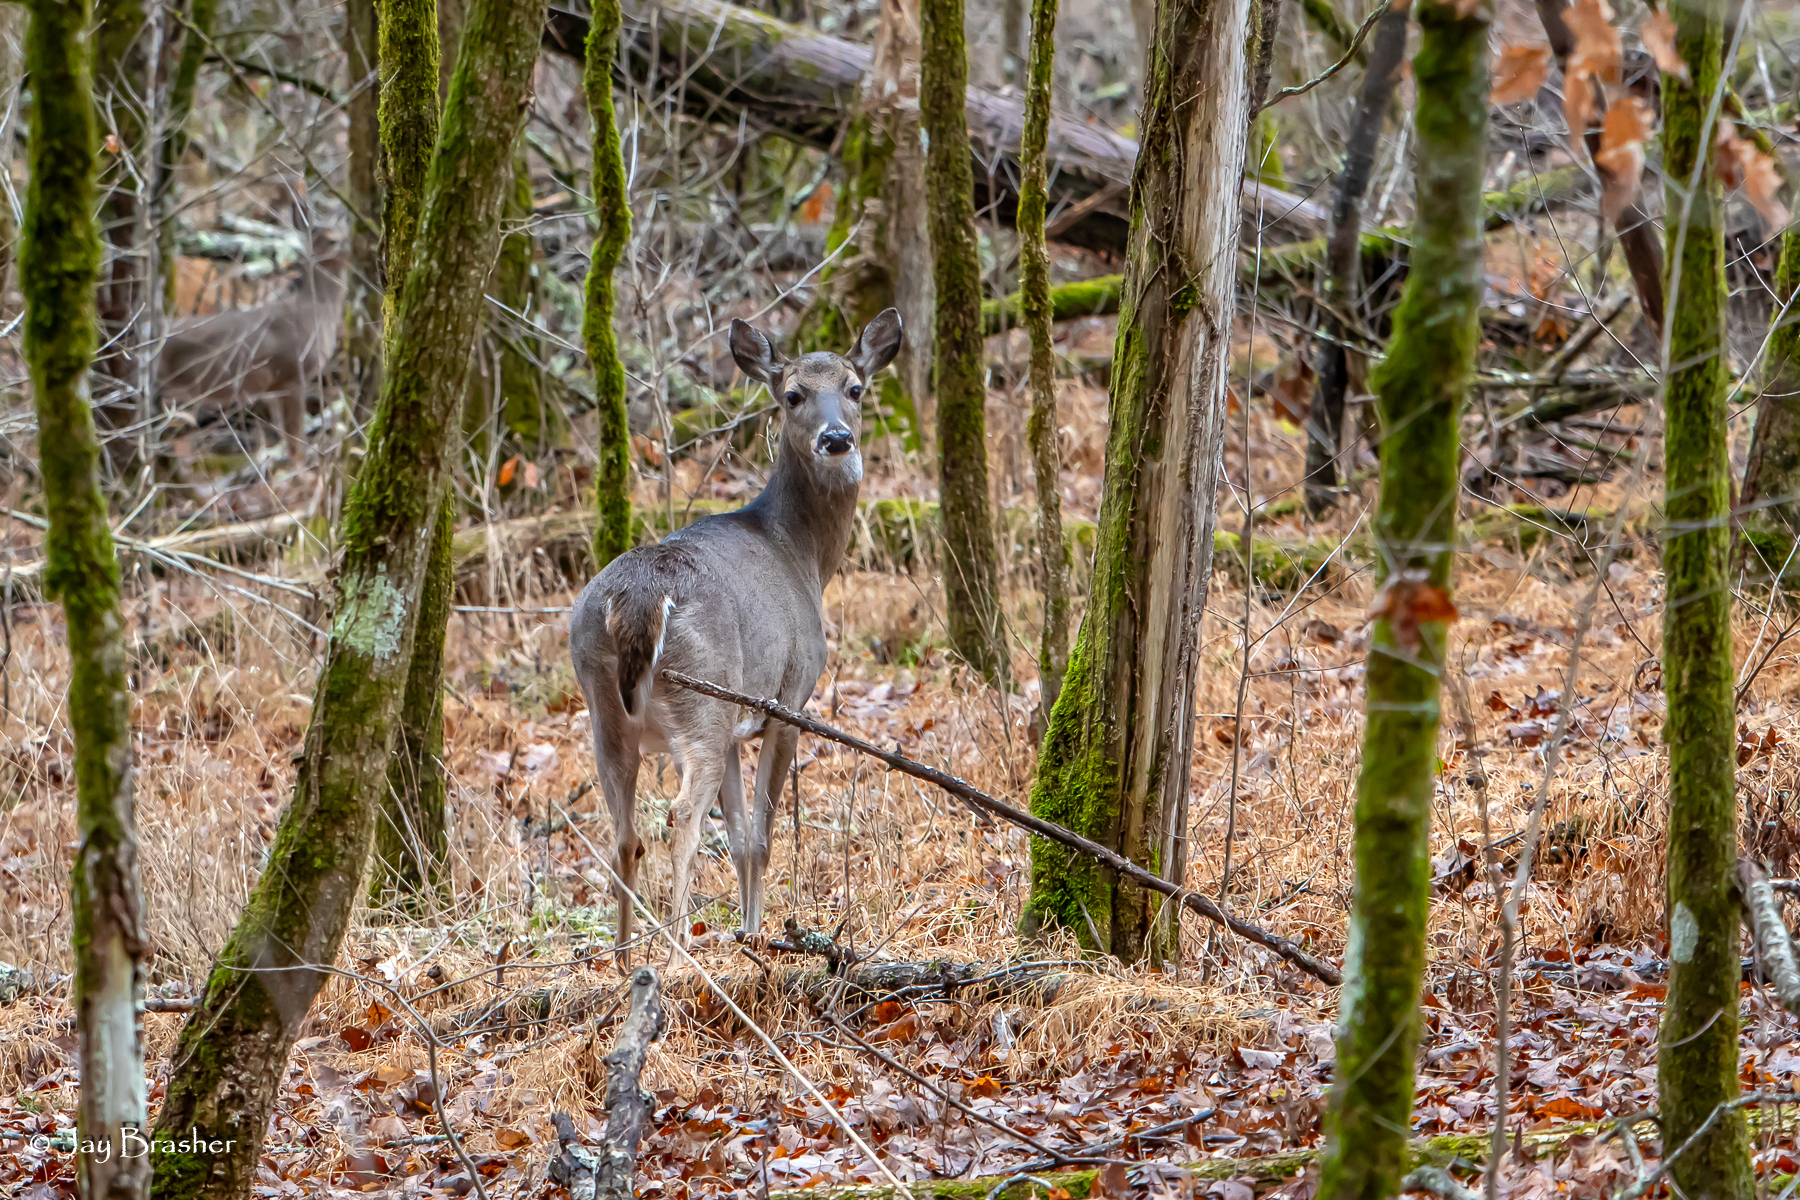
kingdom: Animalia
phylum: Chordata
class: Mammalia
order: Artiodactyla
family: Cervidae
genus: Odocoileus
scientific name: Odocoileus virginianus
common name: White-tailed deer
